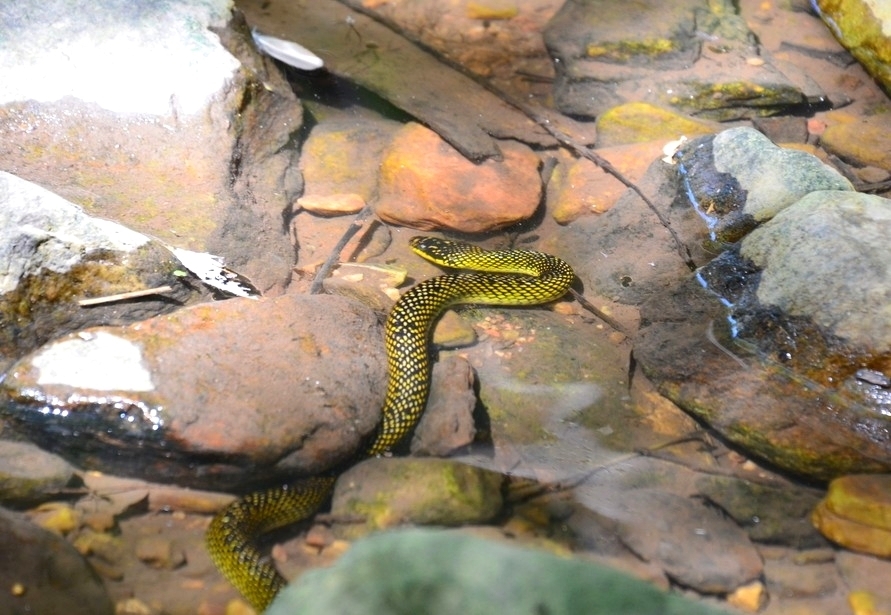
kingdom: Animalia
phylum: Chordata
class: Squamata
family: Colubridae
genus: Erythrolamprus
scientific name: Erythrolamprus poecilogyrus
